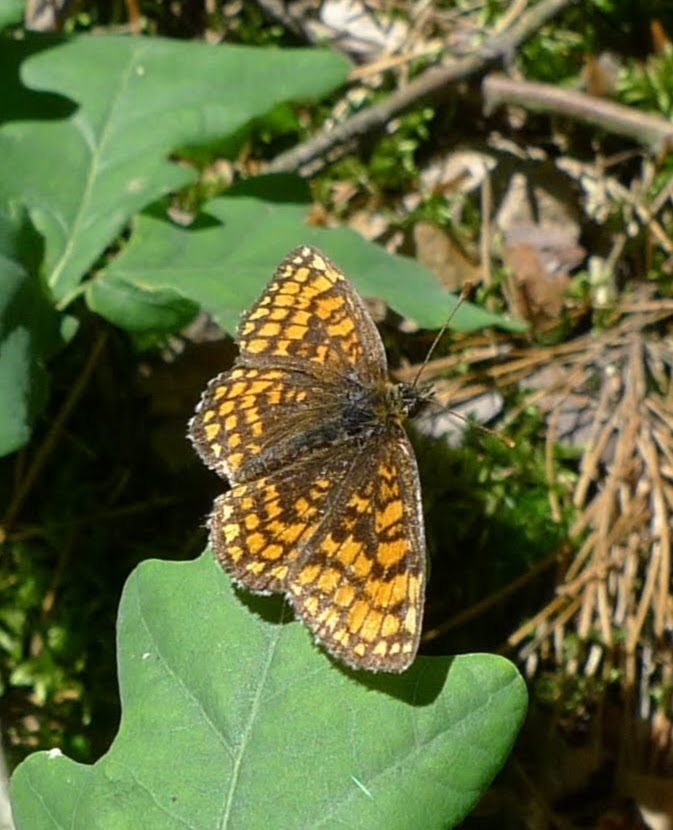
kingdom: Animalia
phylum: Arthropoda
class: Insecta
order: Lepidoptera
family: Nymphalidae
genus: Melitaea
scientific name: Melitaea athalia
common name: Heath fritillary
